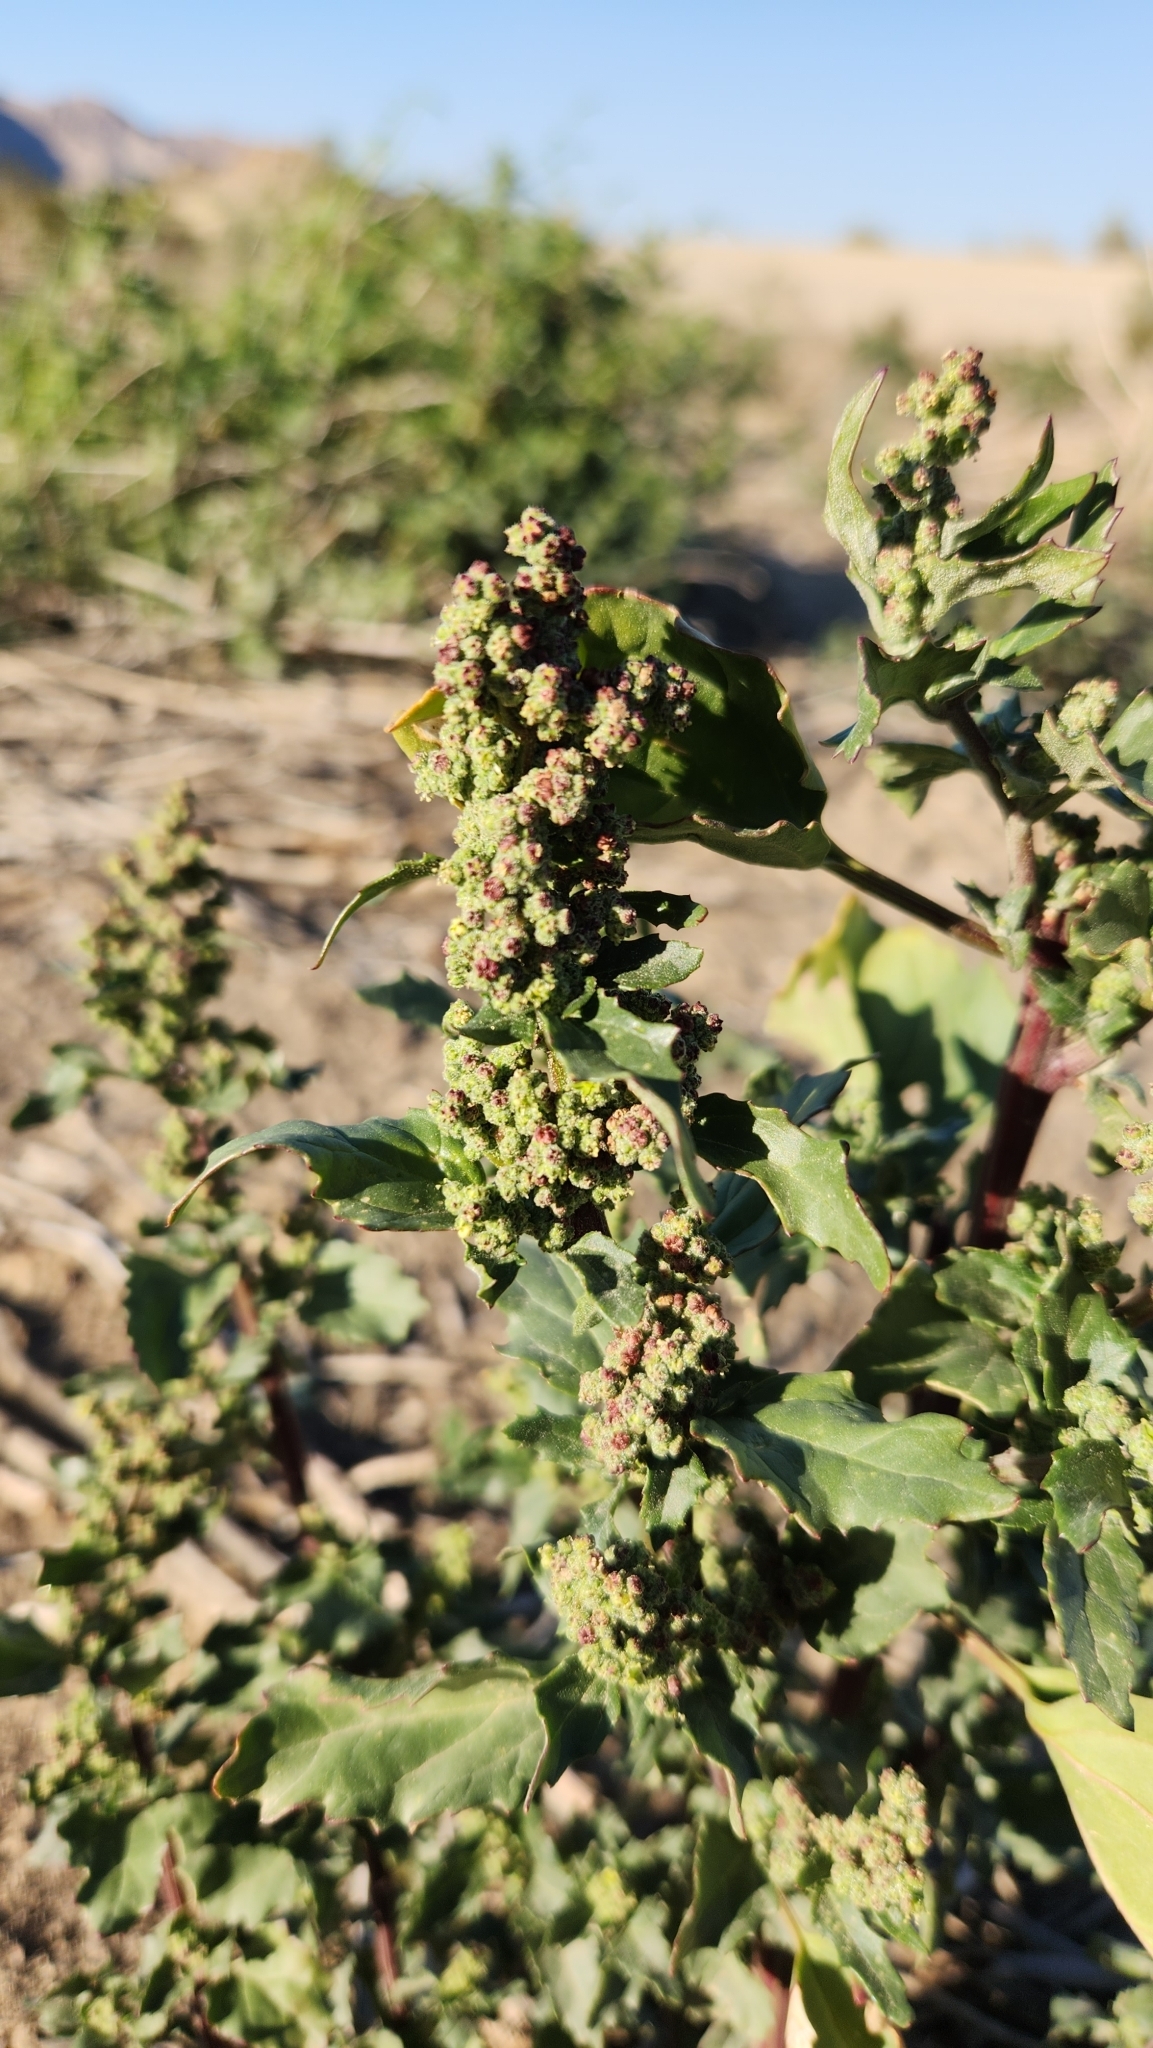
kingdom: Plantae
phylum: Tracheophyta
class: Magnoliopsida
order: Caryophyllales
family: Amaranthaceae
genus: Chenopodiastrum
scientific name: Chenopodiastrum murale
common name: Sowbane
